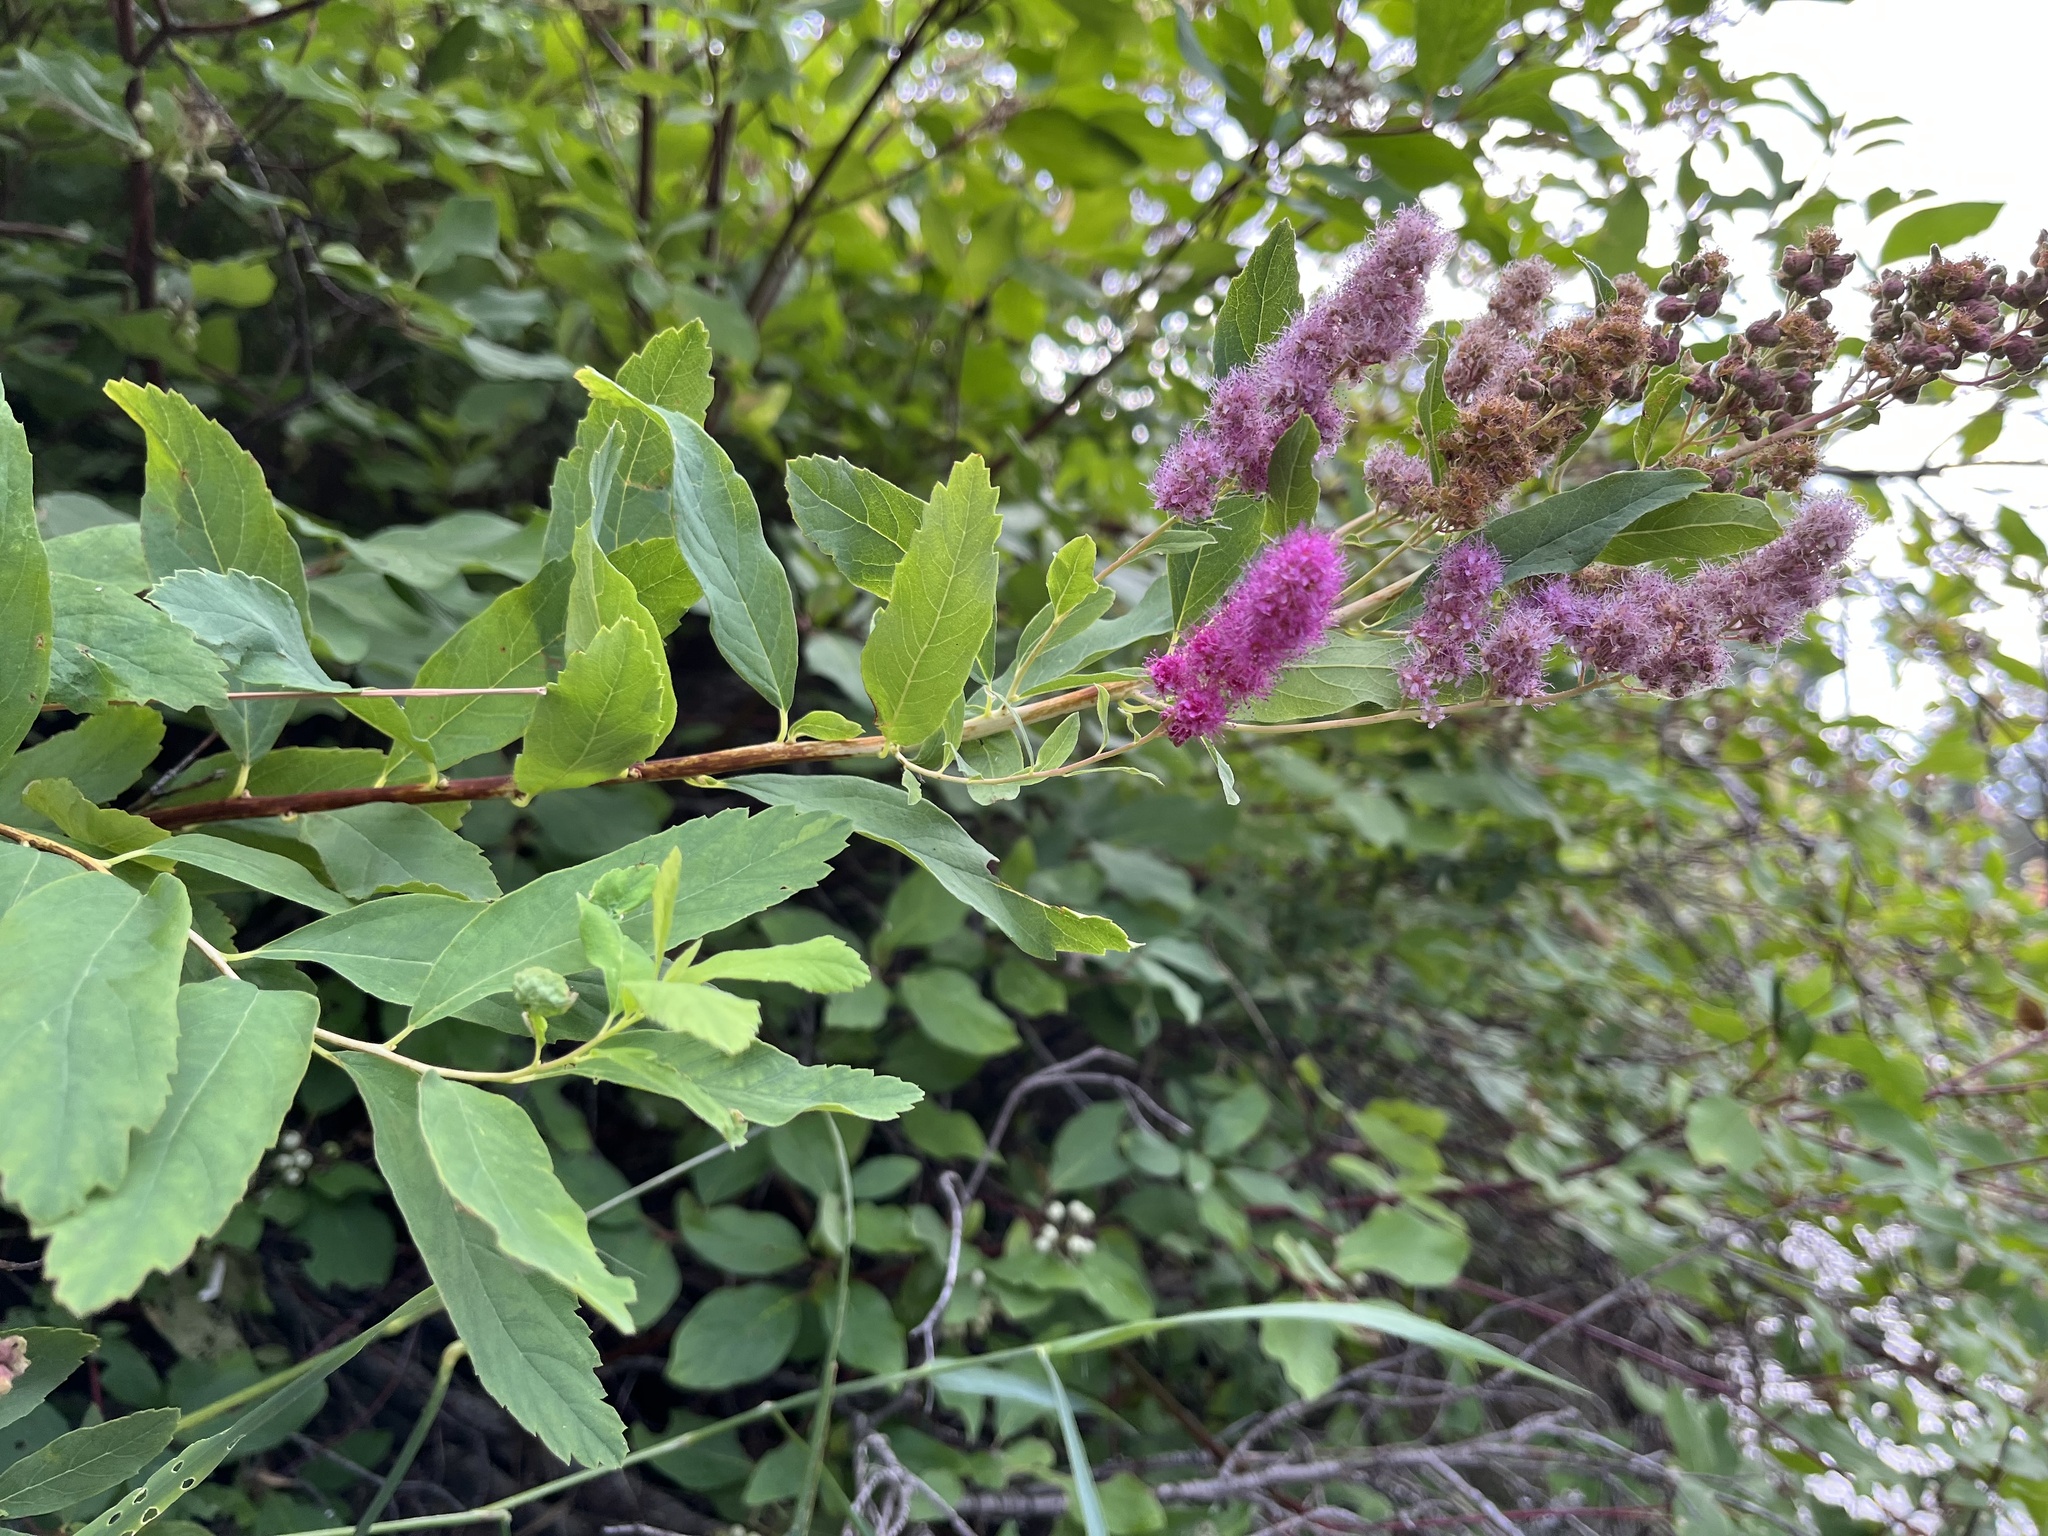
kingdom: Plantae
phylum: Tracheophyta
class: Magnoliopsida
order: Rosales
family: Rosaceae
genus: Spiraea
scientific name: Spiraea douglasii
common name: Steeplebush
